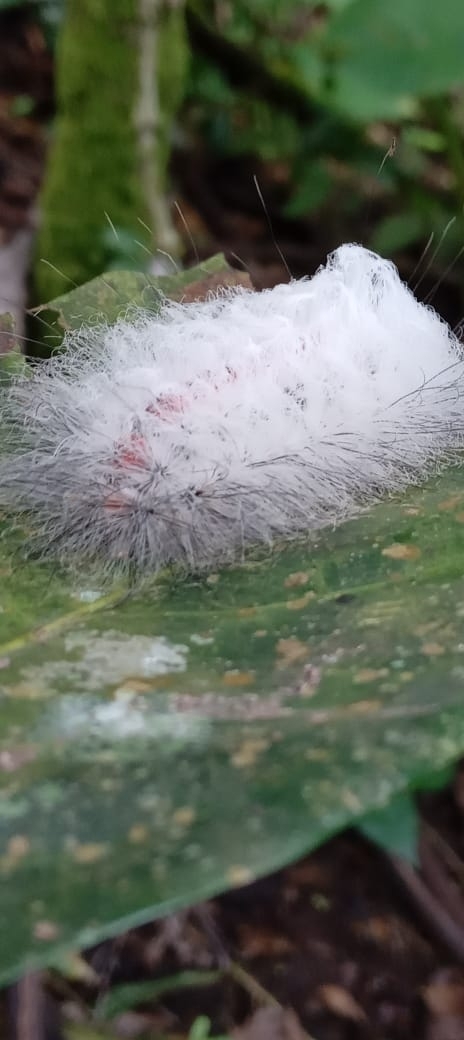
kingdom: Animalia
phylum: Arthropoda
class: Insecta
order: Lepidoptera
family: Megalopygidae
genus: Megalopyge
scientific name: Megalopyge basalis
